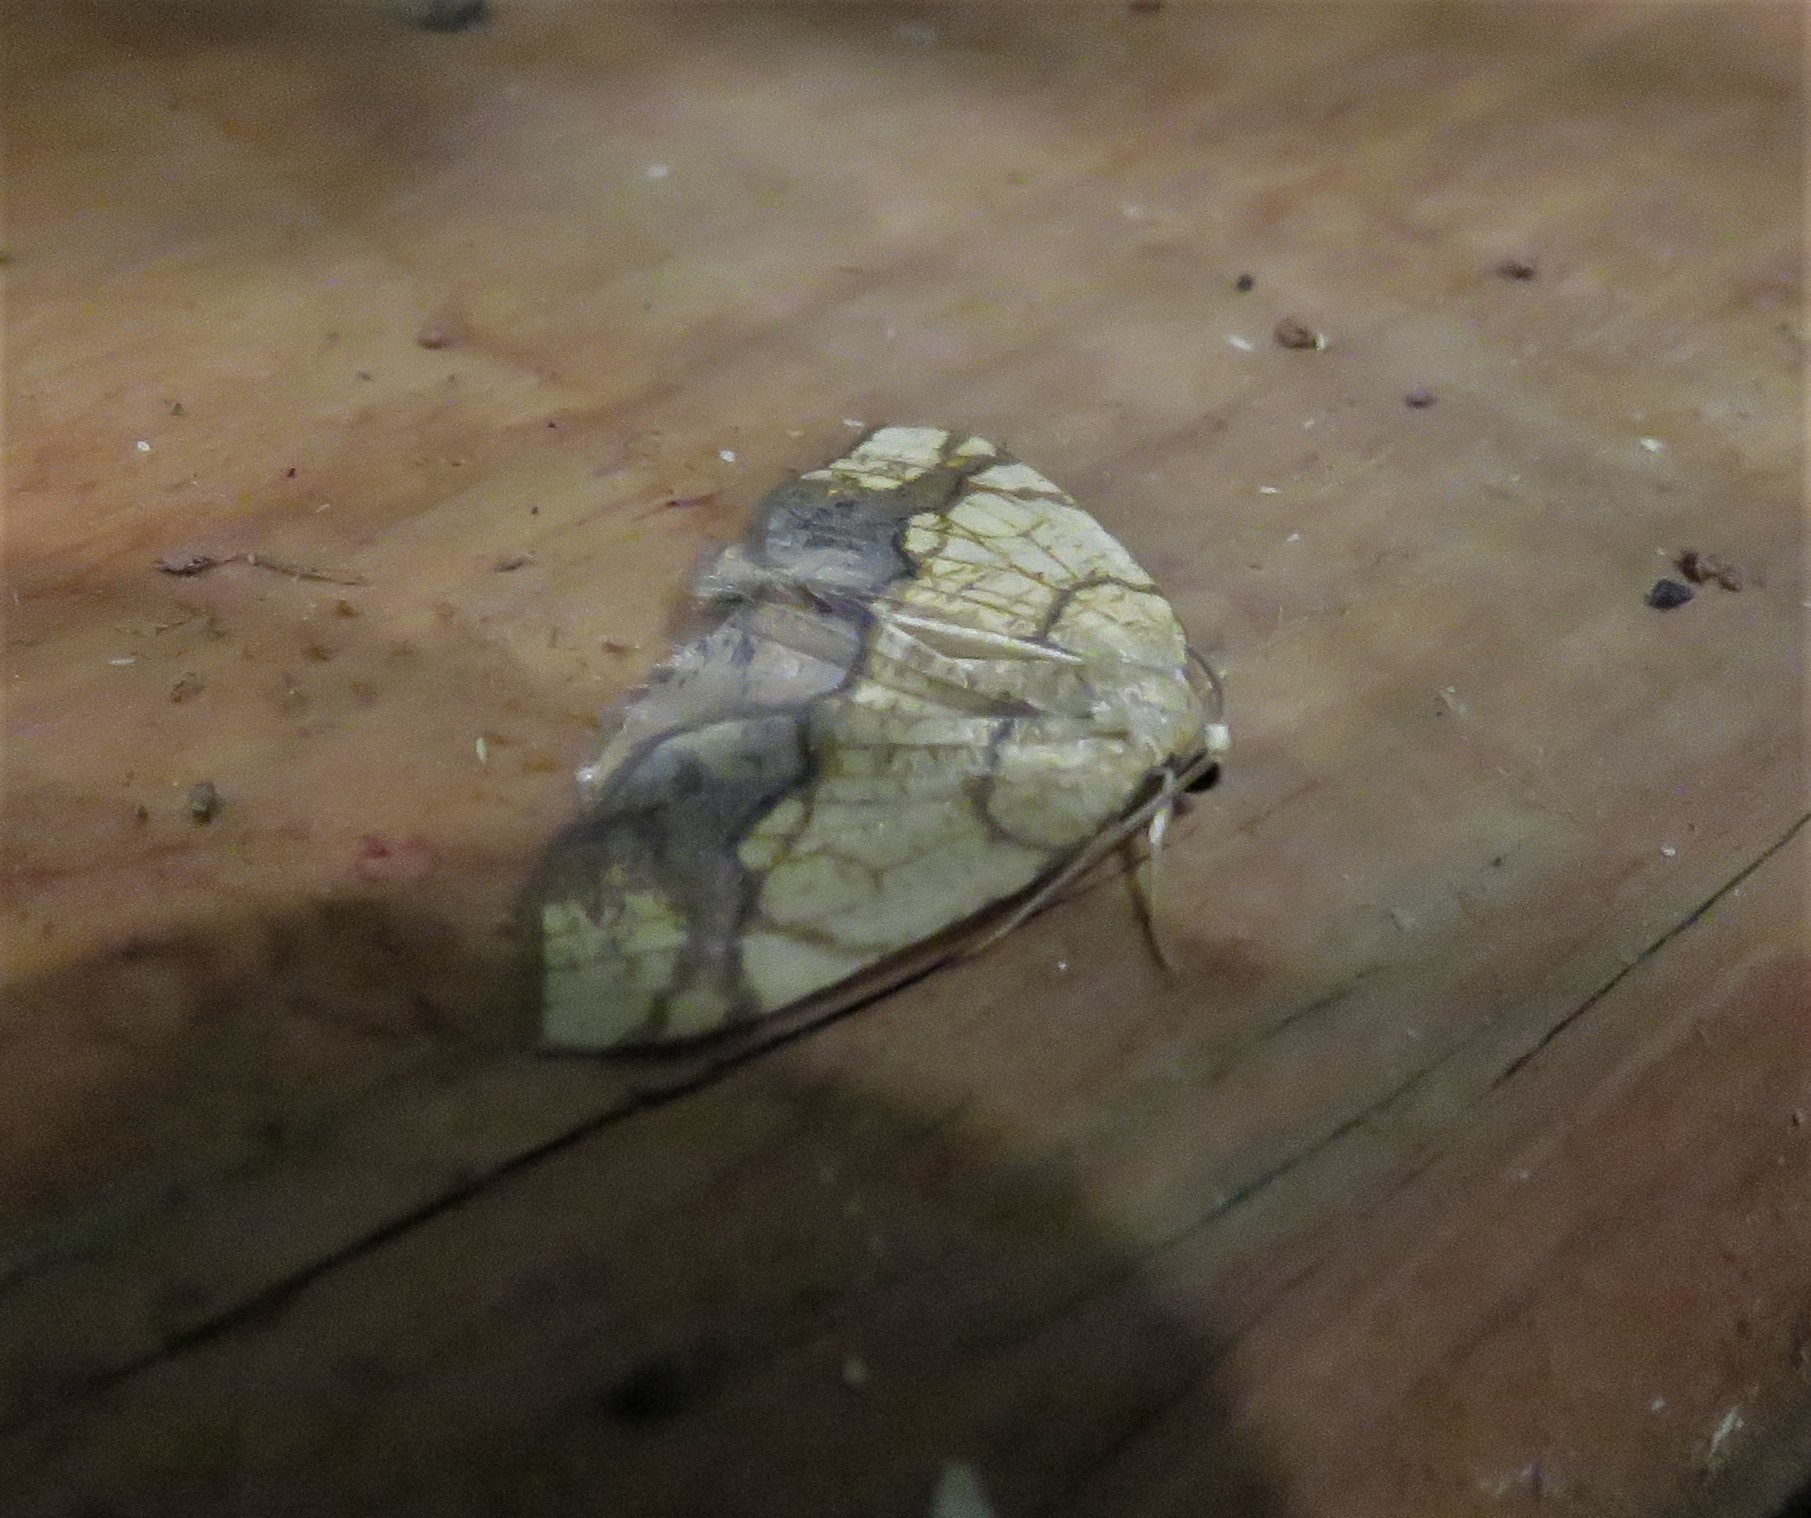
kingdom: Animalia
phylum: Arthropoda
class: Insecta
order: Lepidoptera
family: Geometridae
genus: Nematocampa
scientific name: Nematocampa resistaria
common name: Horned spanworm moth
